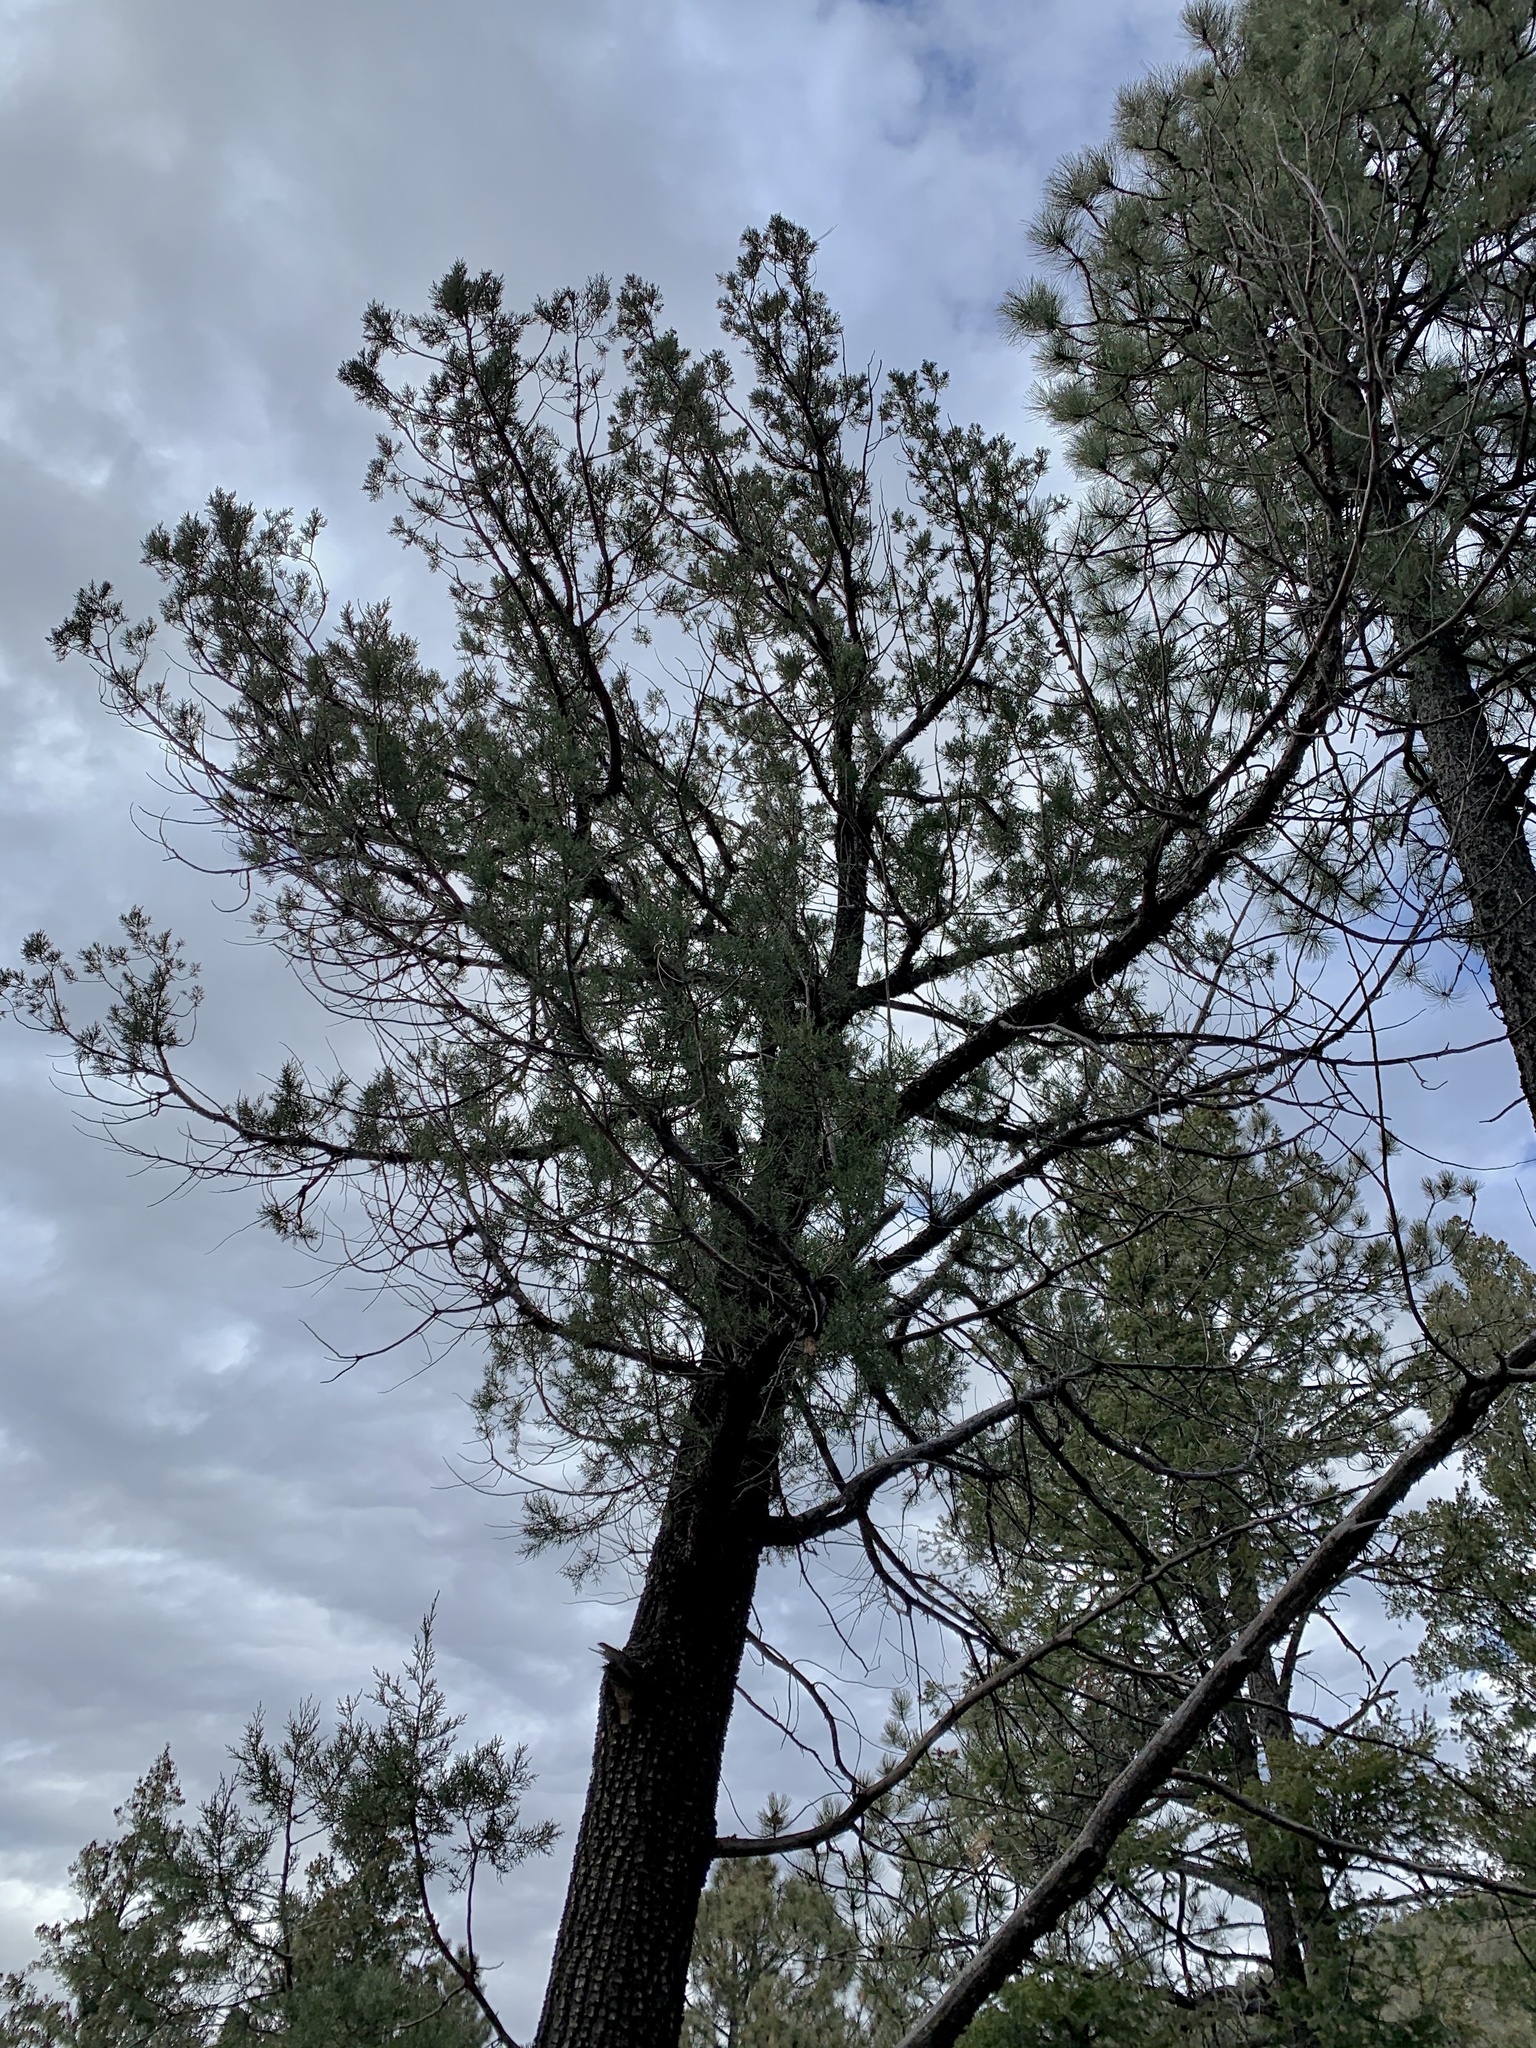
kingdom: Plantae
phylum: Tracheophyta
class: Pinopsida
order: Pinales
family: Cupressaceae
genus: Juniperus
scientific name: Juniperus deppeana
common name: Alligator juniper
